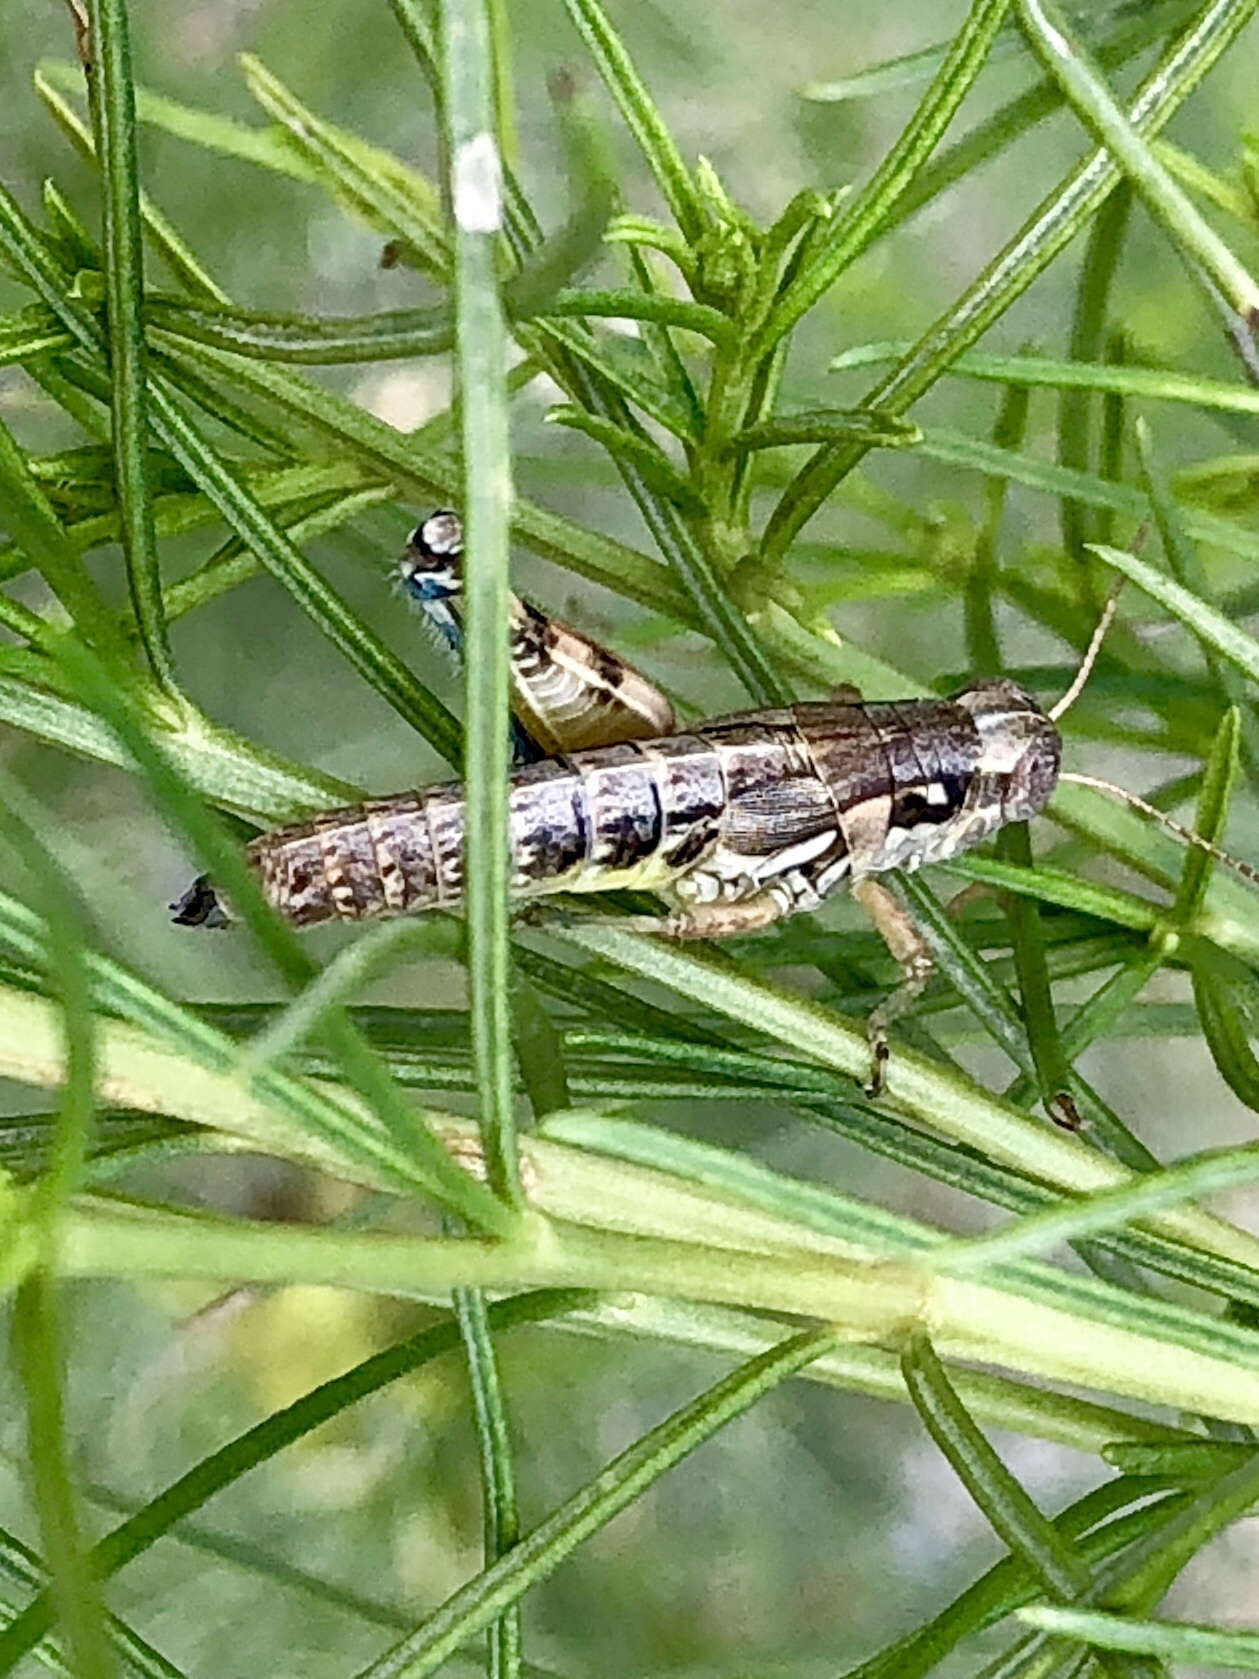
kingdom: Animalia
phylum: Arthropoda
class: Insecta
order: Orthoptera
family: Acrididae
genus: Melanoplus
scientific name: Melanoplus aridus
